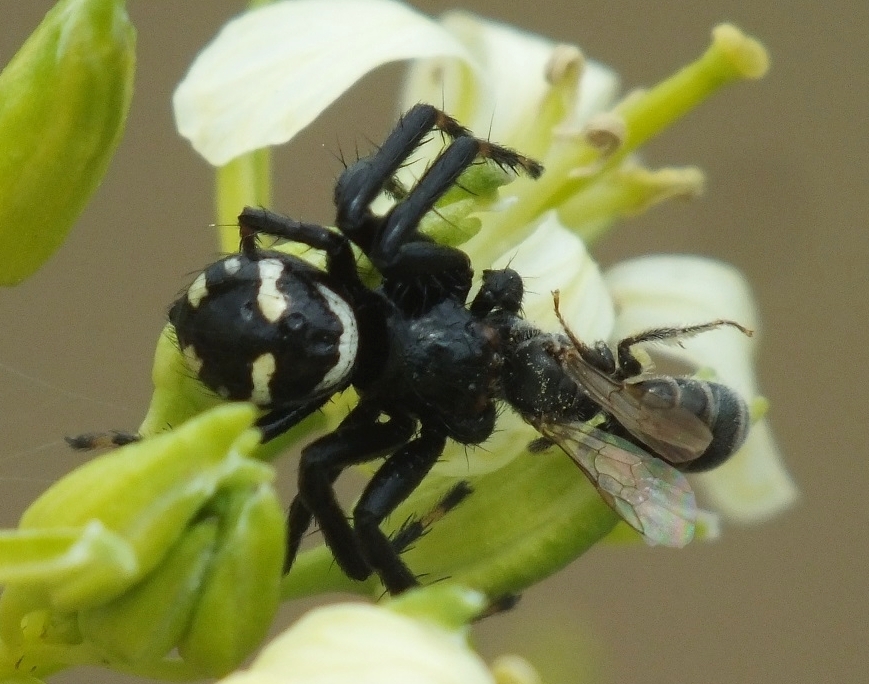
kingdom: Animalia
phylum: Arthropoda
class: Arachnida
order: Araneae
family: Thomisidae
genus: Synema
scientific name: Synema globosum
